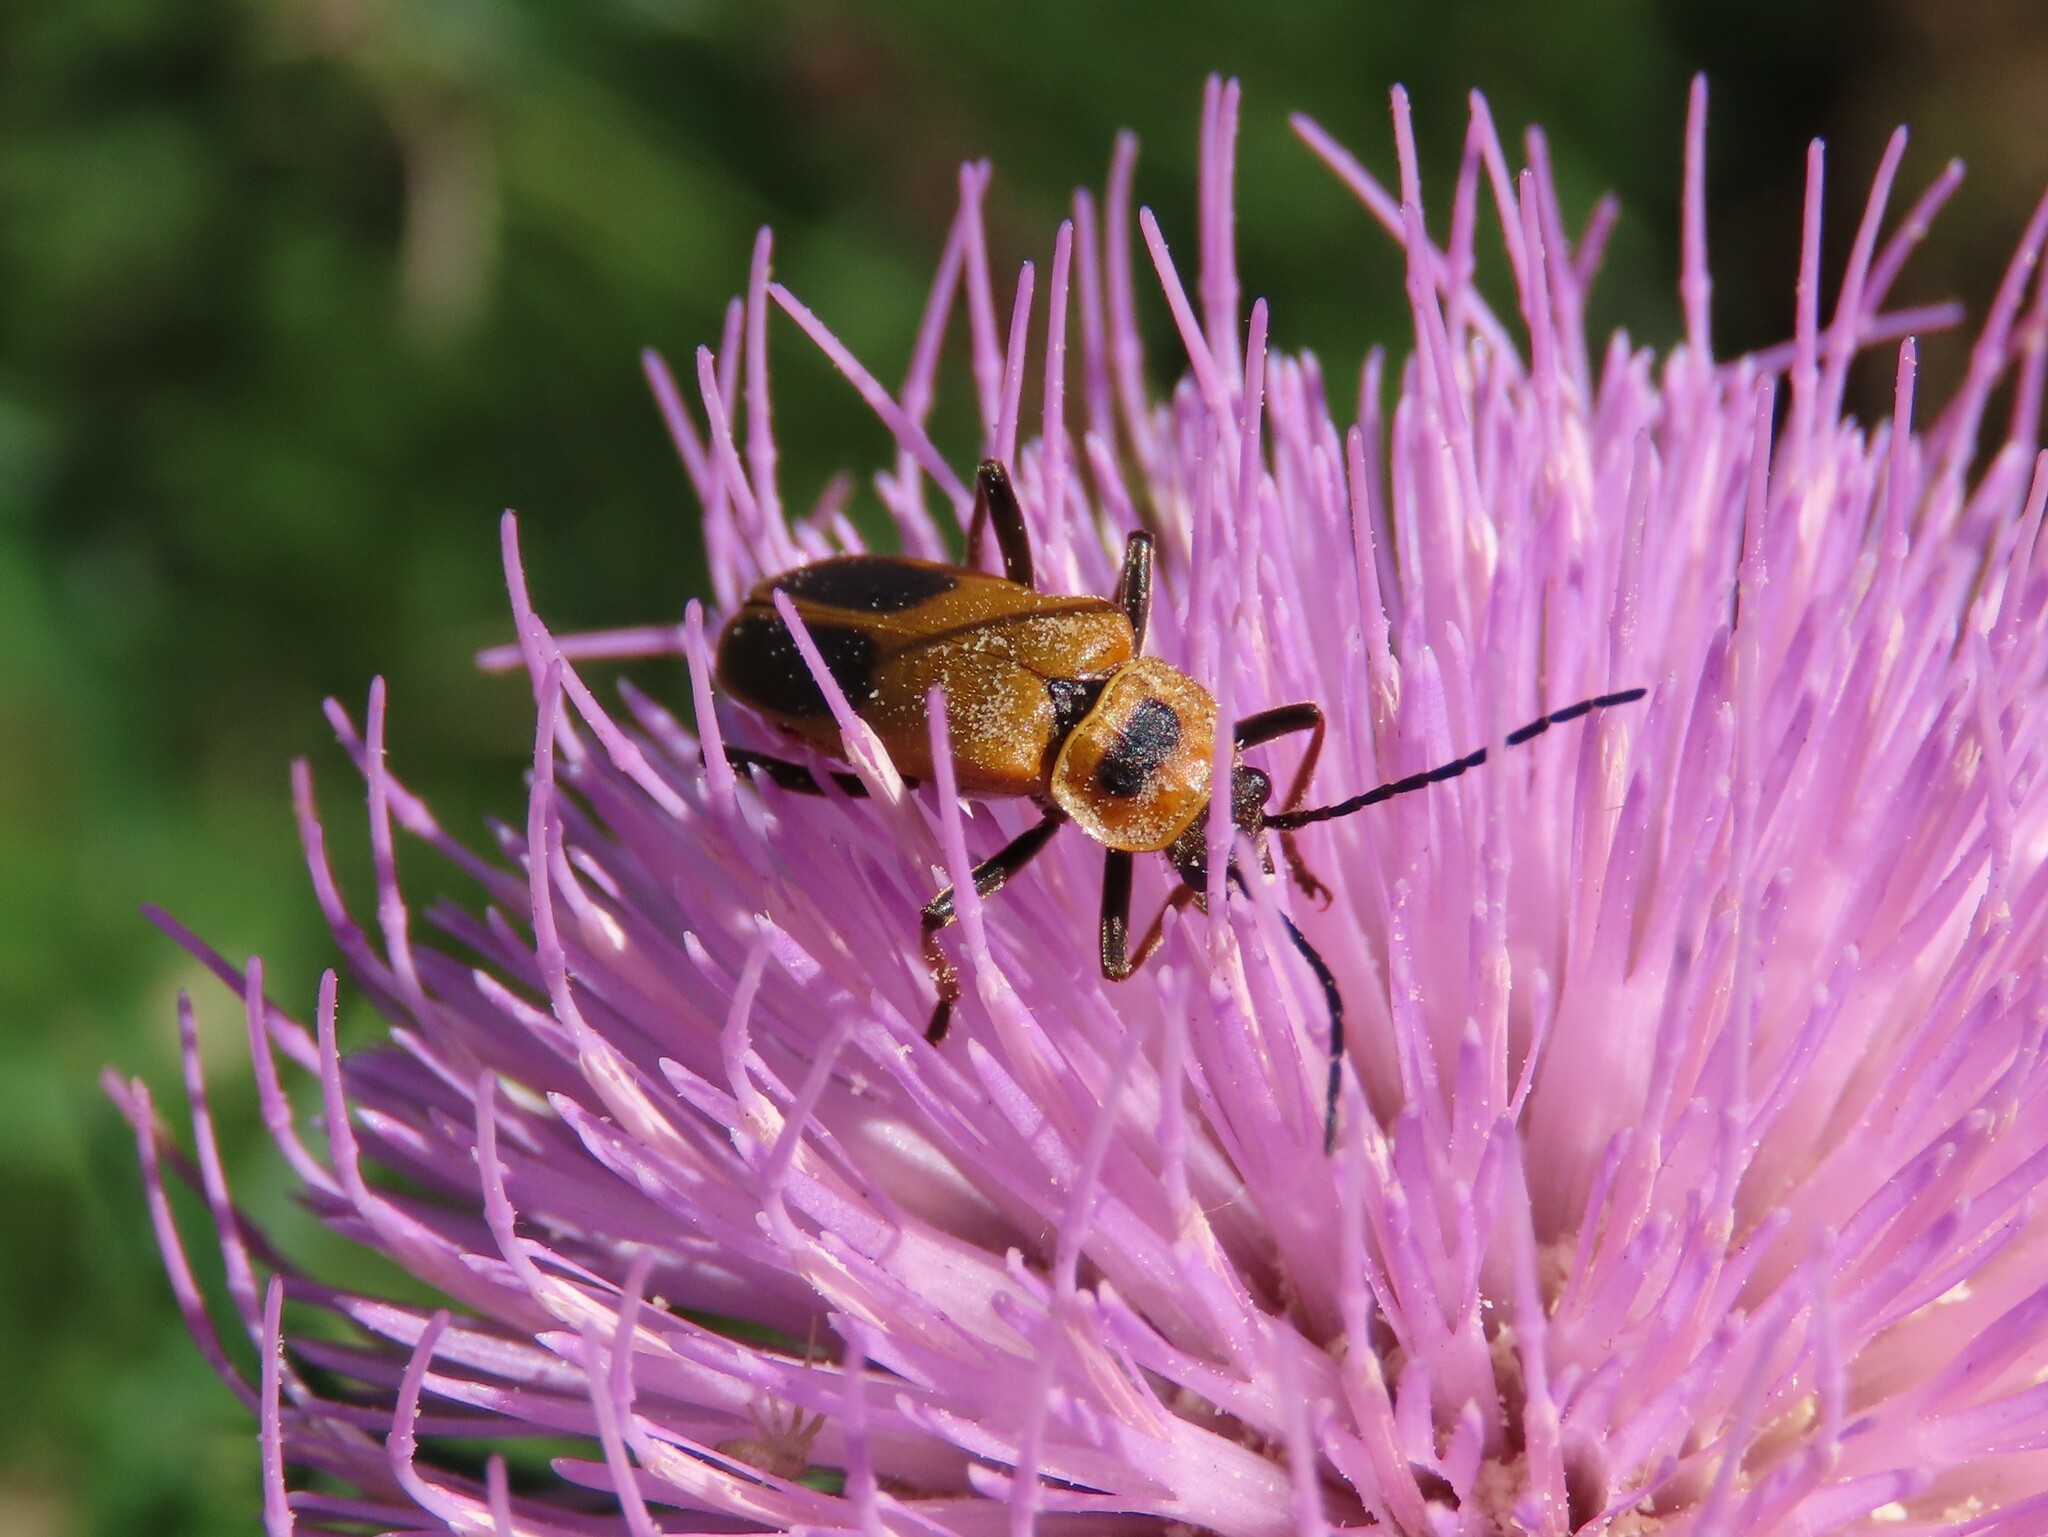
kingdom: Animalia
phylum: Arthropoda
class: Insecta
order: Coleoptera
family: Cantharidae
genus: Chauliognathus
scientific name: Chauliognathus pensylvanicus
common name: Goldenrod soldier beetle
